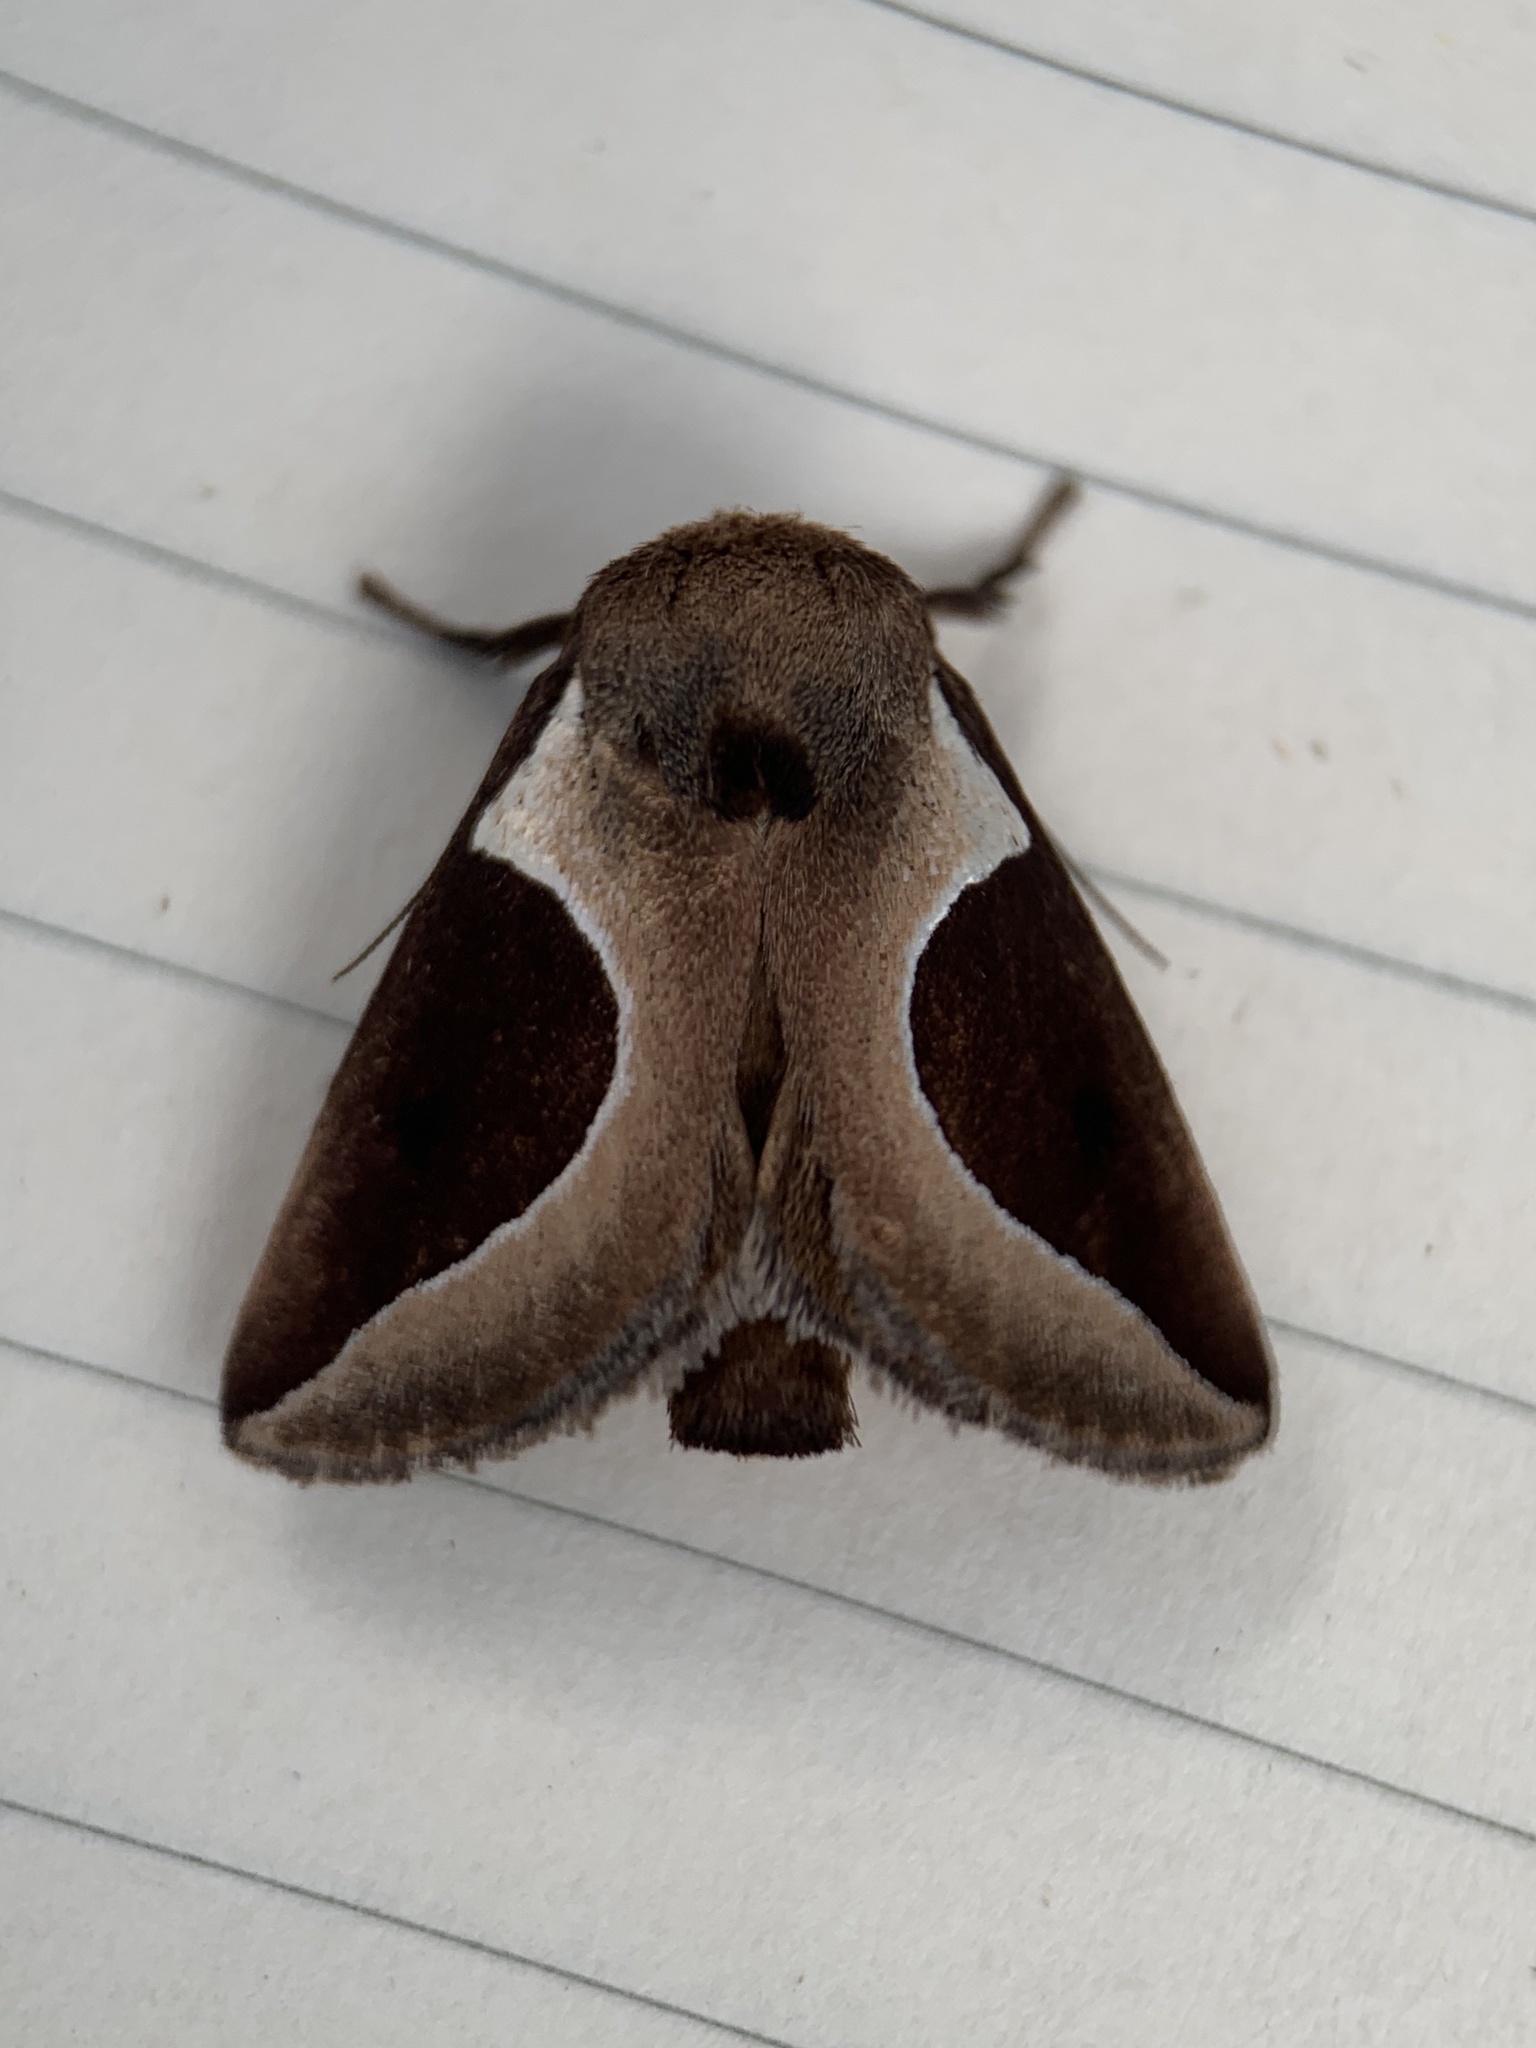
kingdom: Animalia
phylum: Arthropoda
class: Insecta
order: Lepidoptera
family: Limacodidae
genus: Prolimacodes
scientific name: Prolimacodes badia
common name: Skiff moth
